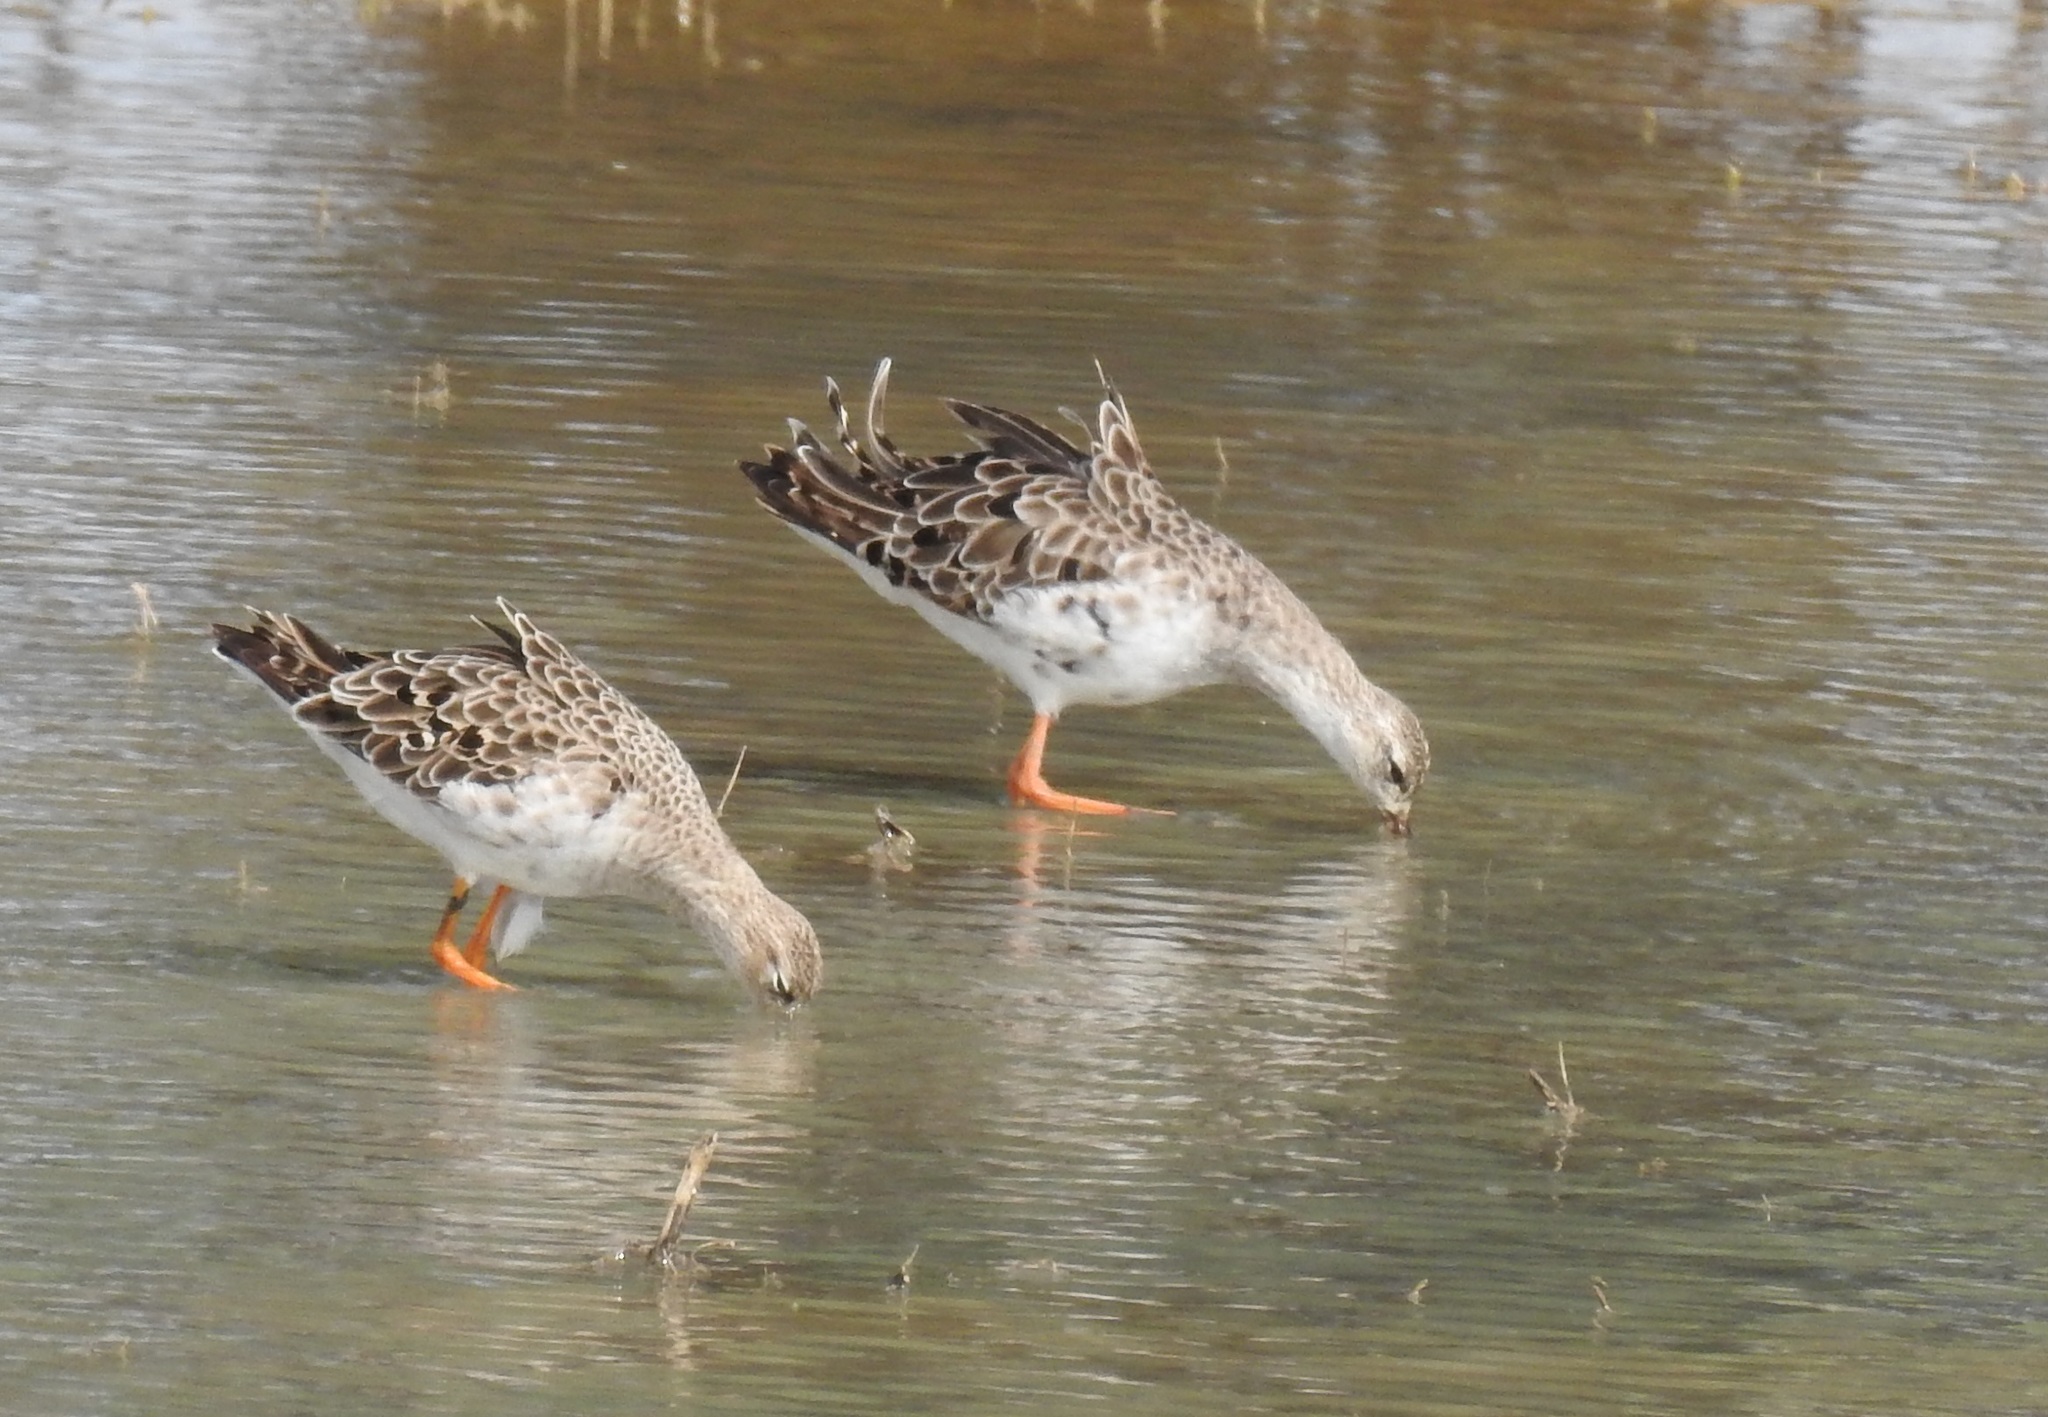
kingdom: Animalia
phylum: Chordata
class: Aves
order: Charadriiformes
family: Scolopacidae
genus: Calidris
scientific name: Calidris pugnax
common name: Ruff
